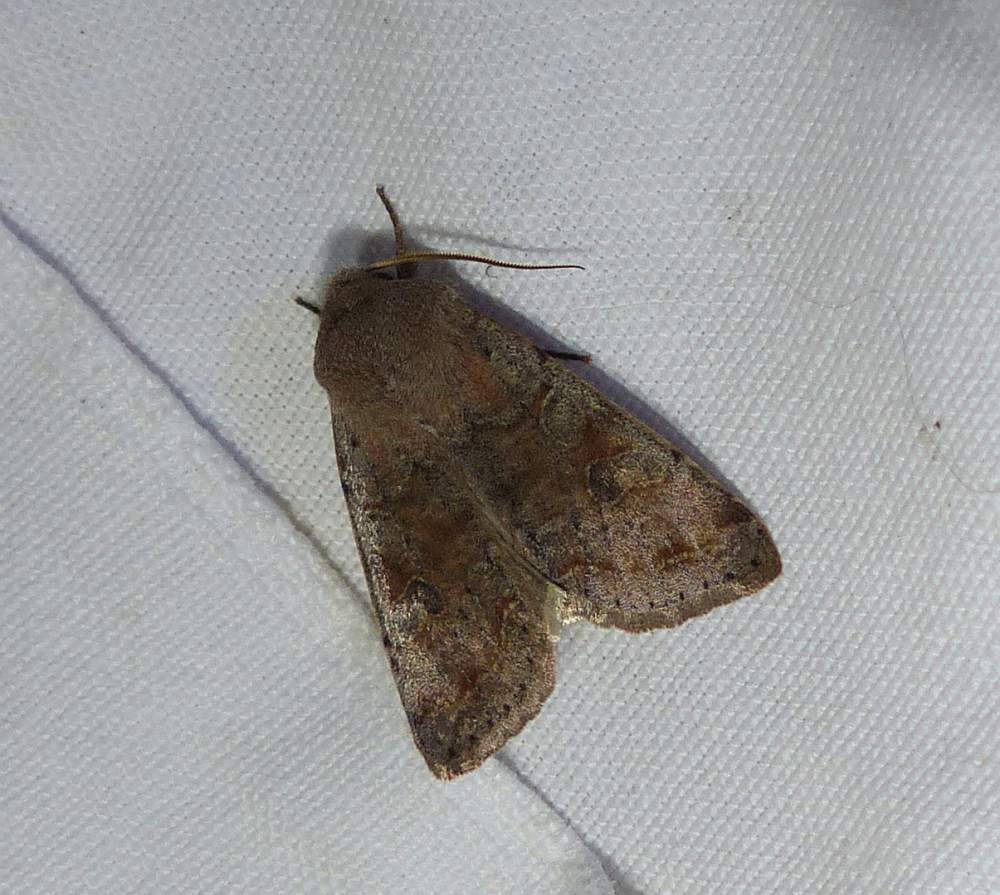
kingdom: Animalia
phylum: Arthropoda
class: Insecta
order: Lepidoptera
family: Noctuidae
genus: Orthosia
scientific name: Orthosia hibisci
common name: Green fruitworm
